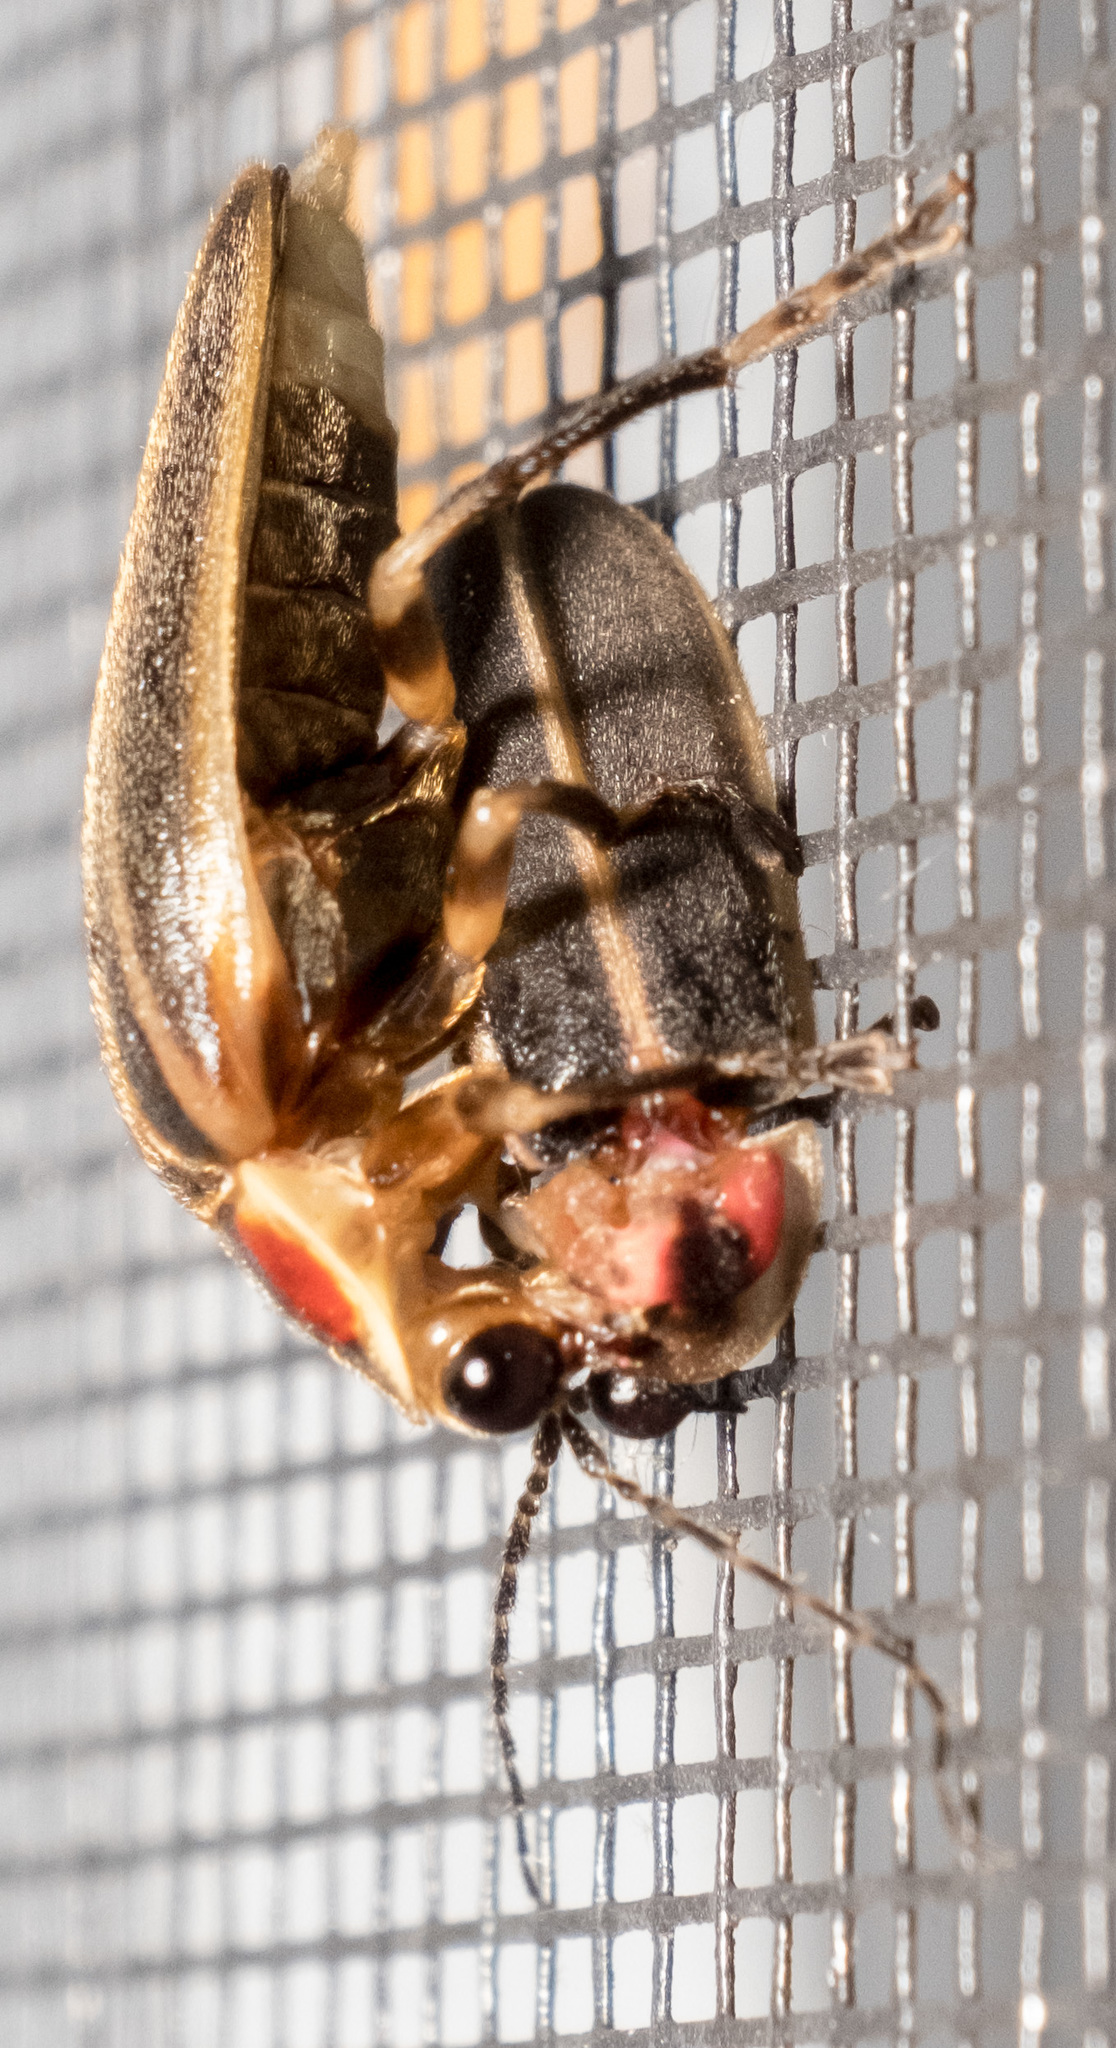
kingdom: Animalia
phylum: Arthropoda
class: Insecta
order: Coleoptera
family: Lampyridae
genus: Photinus
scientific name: Photinus pyralis
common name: Big dipper firefly
